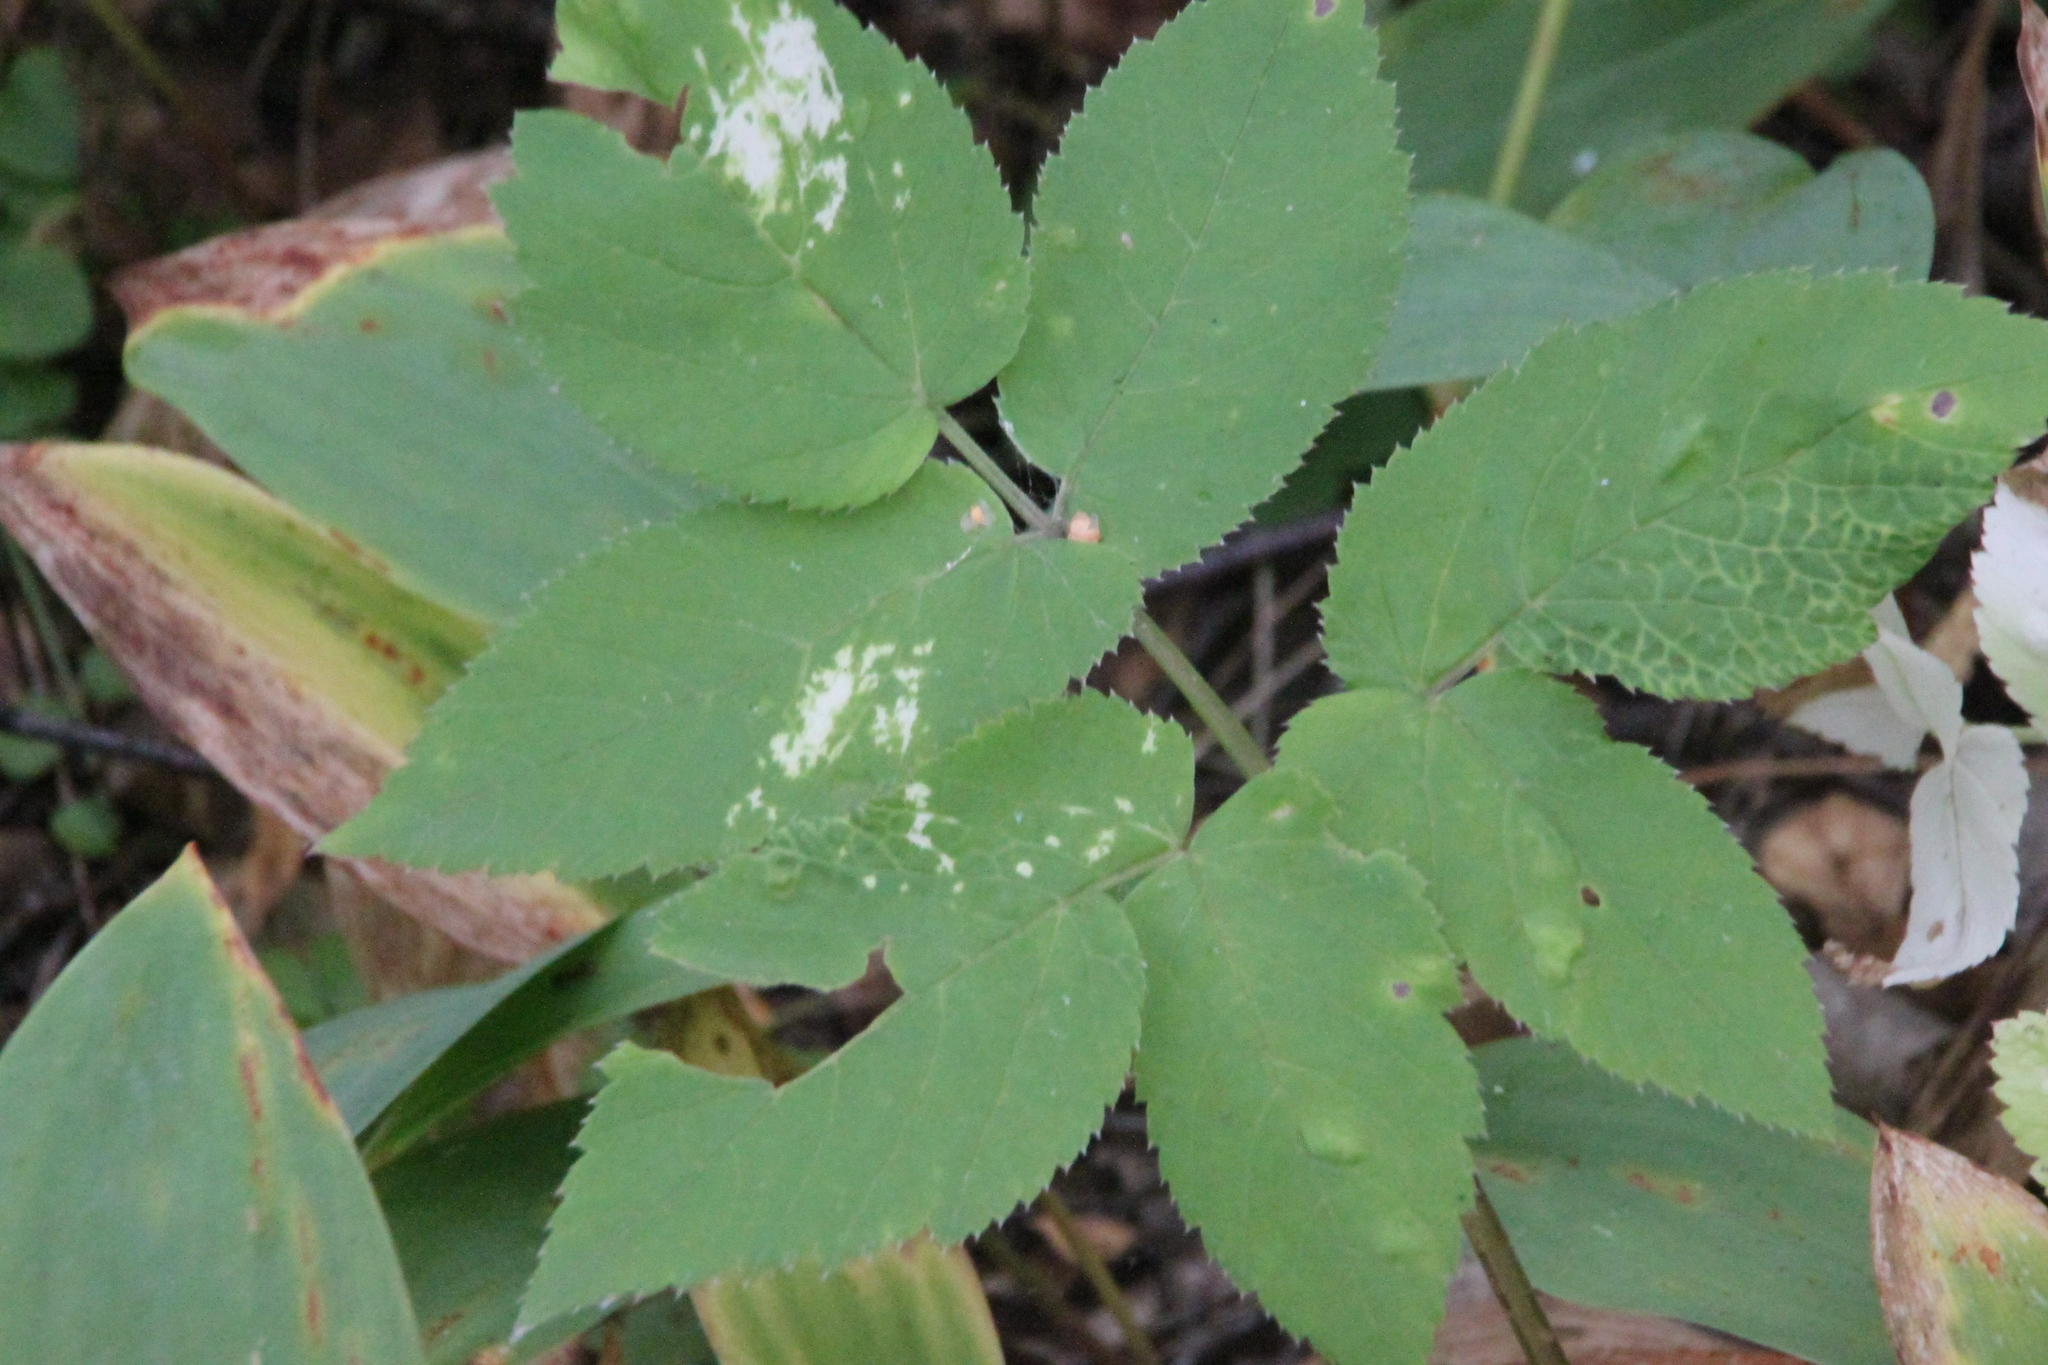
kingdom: Plantae
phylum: Tracheophyta
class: Magnoliopsida
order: Apiales
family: Apiaceae
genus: Aegopodium
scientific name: Aegopodium podagraria
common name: Ground-elder
